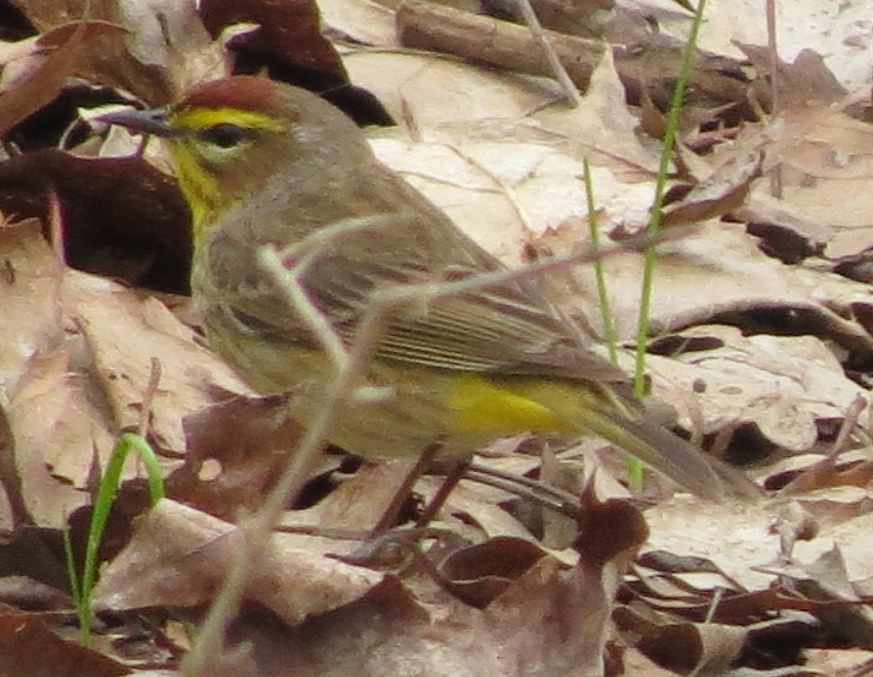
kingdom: Animalia
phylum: Chordata
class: Aves
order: Passeriformes
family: Parulidae
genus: Setophaga
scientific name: Setophaga palmarum
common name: Palm warbler
